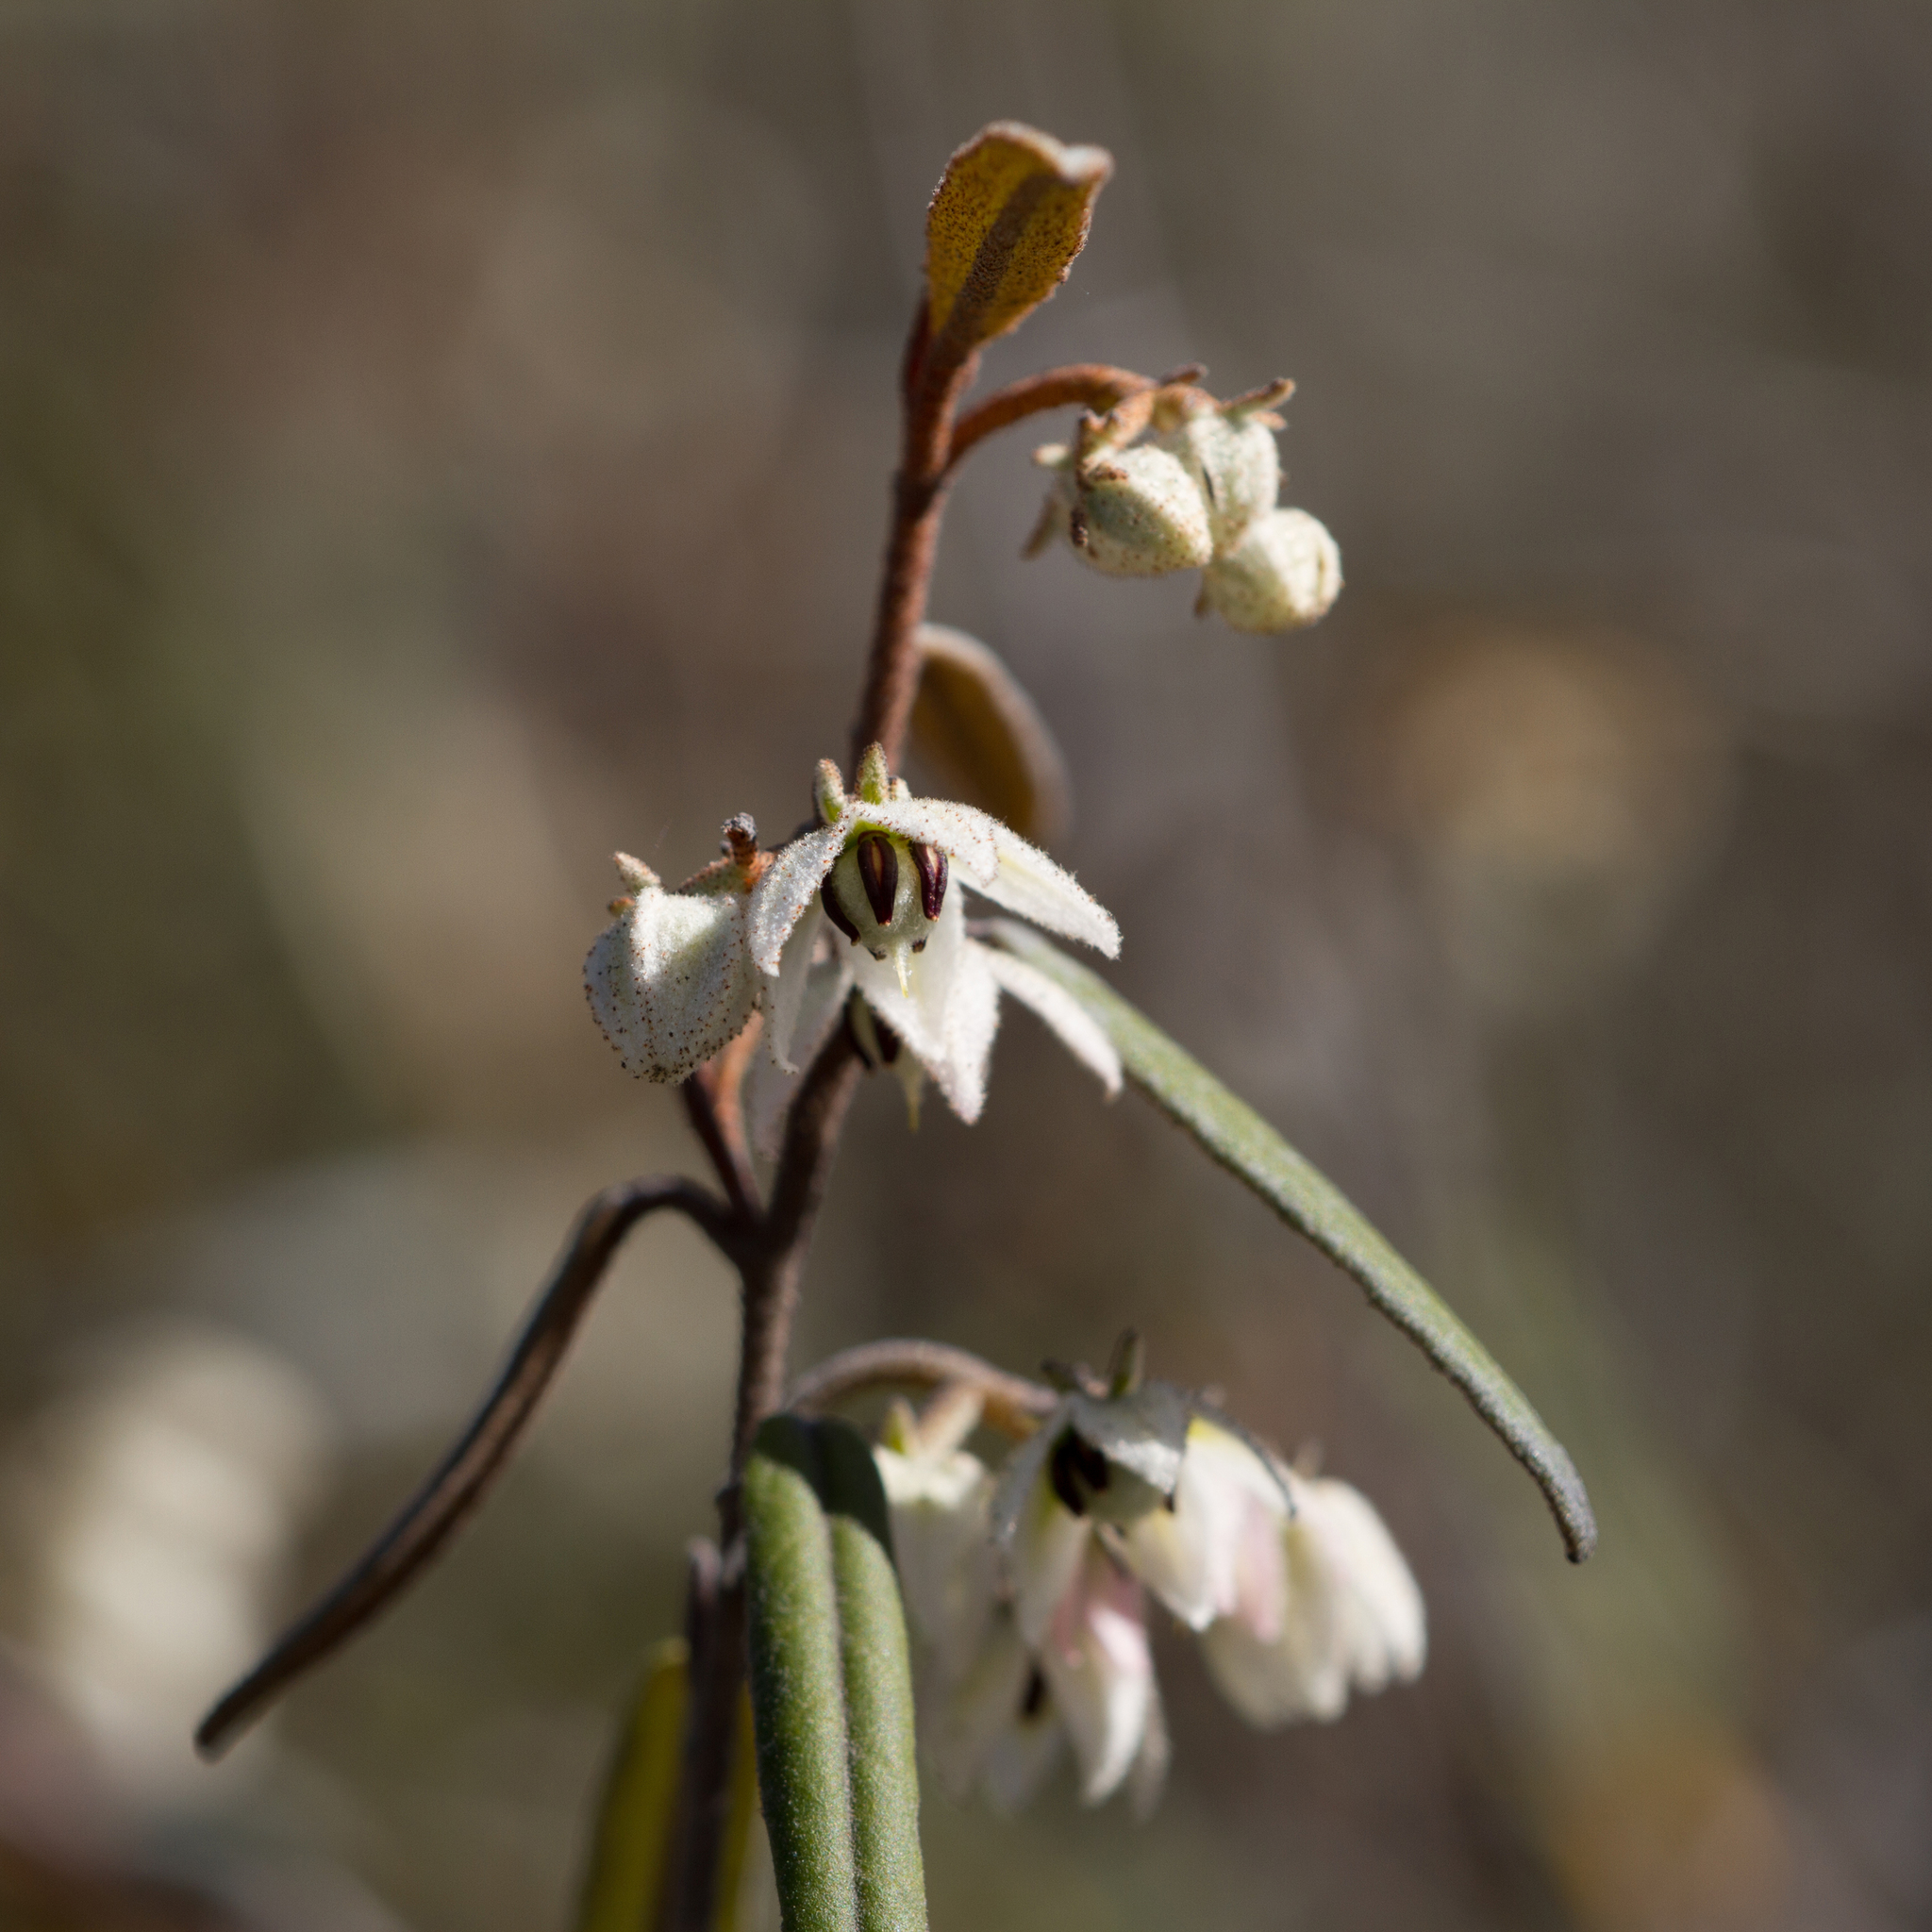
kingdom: Plantae
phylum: Tracheophyta
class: Magnoliopsida
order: Malvales
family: Malvaceae
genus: Lasiopetalum
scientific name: Lasiopetalum behrii
